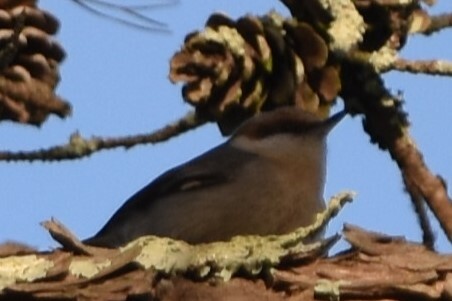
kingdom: Animalia
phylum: Chordata
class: Aves
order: Passeriformes
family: Sittidae
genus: Sitta
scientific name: Sitta pusilla
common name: Brown-headed nuthatch
